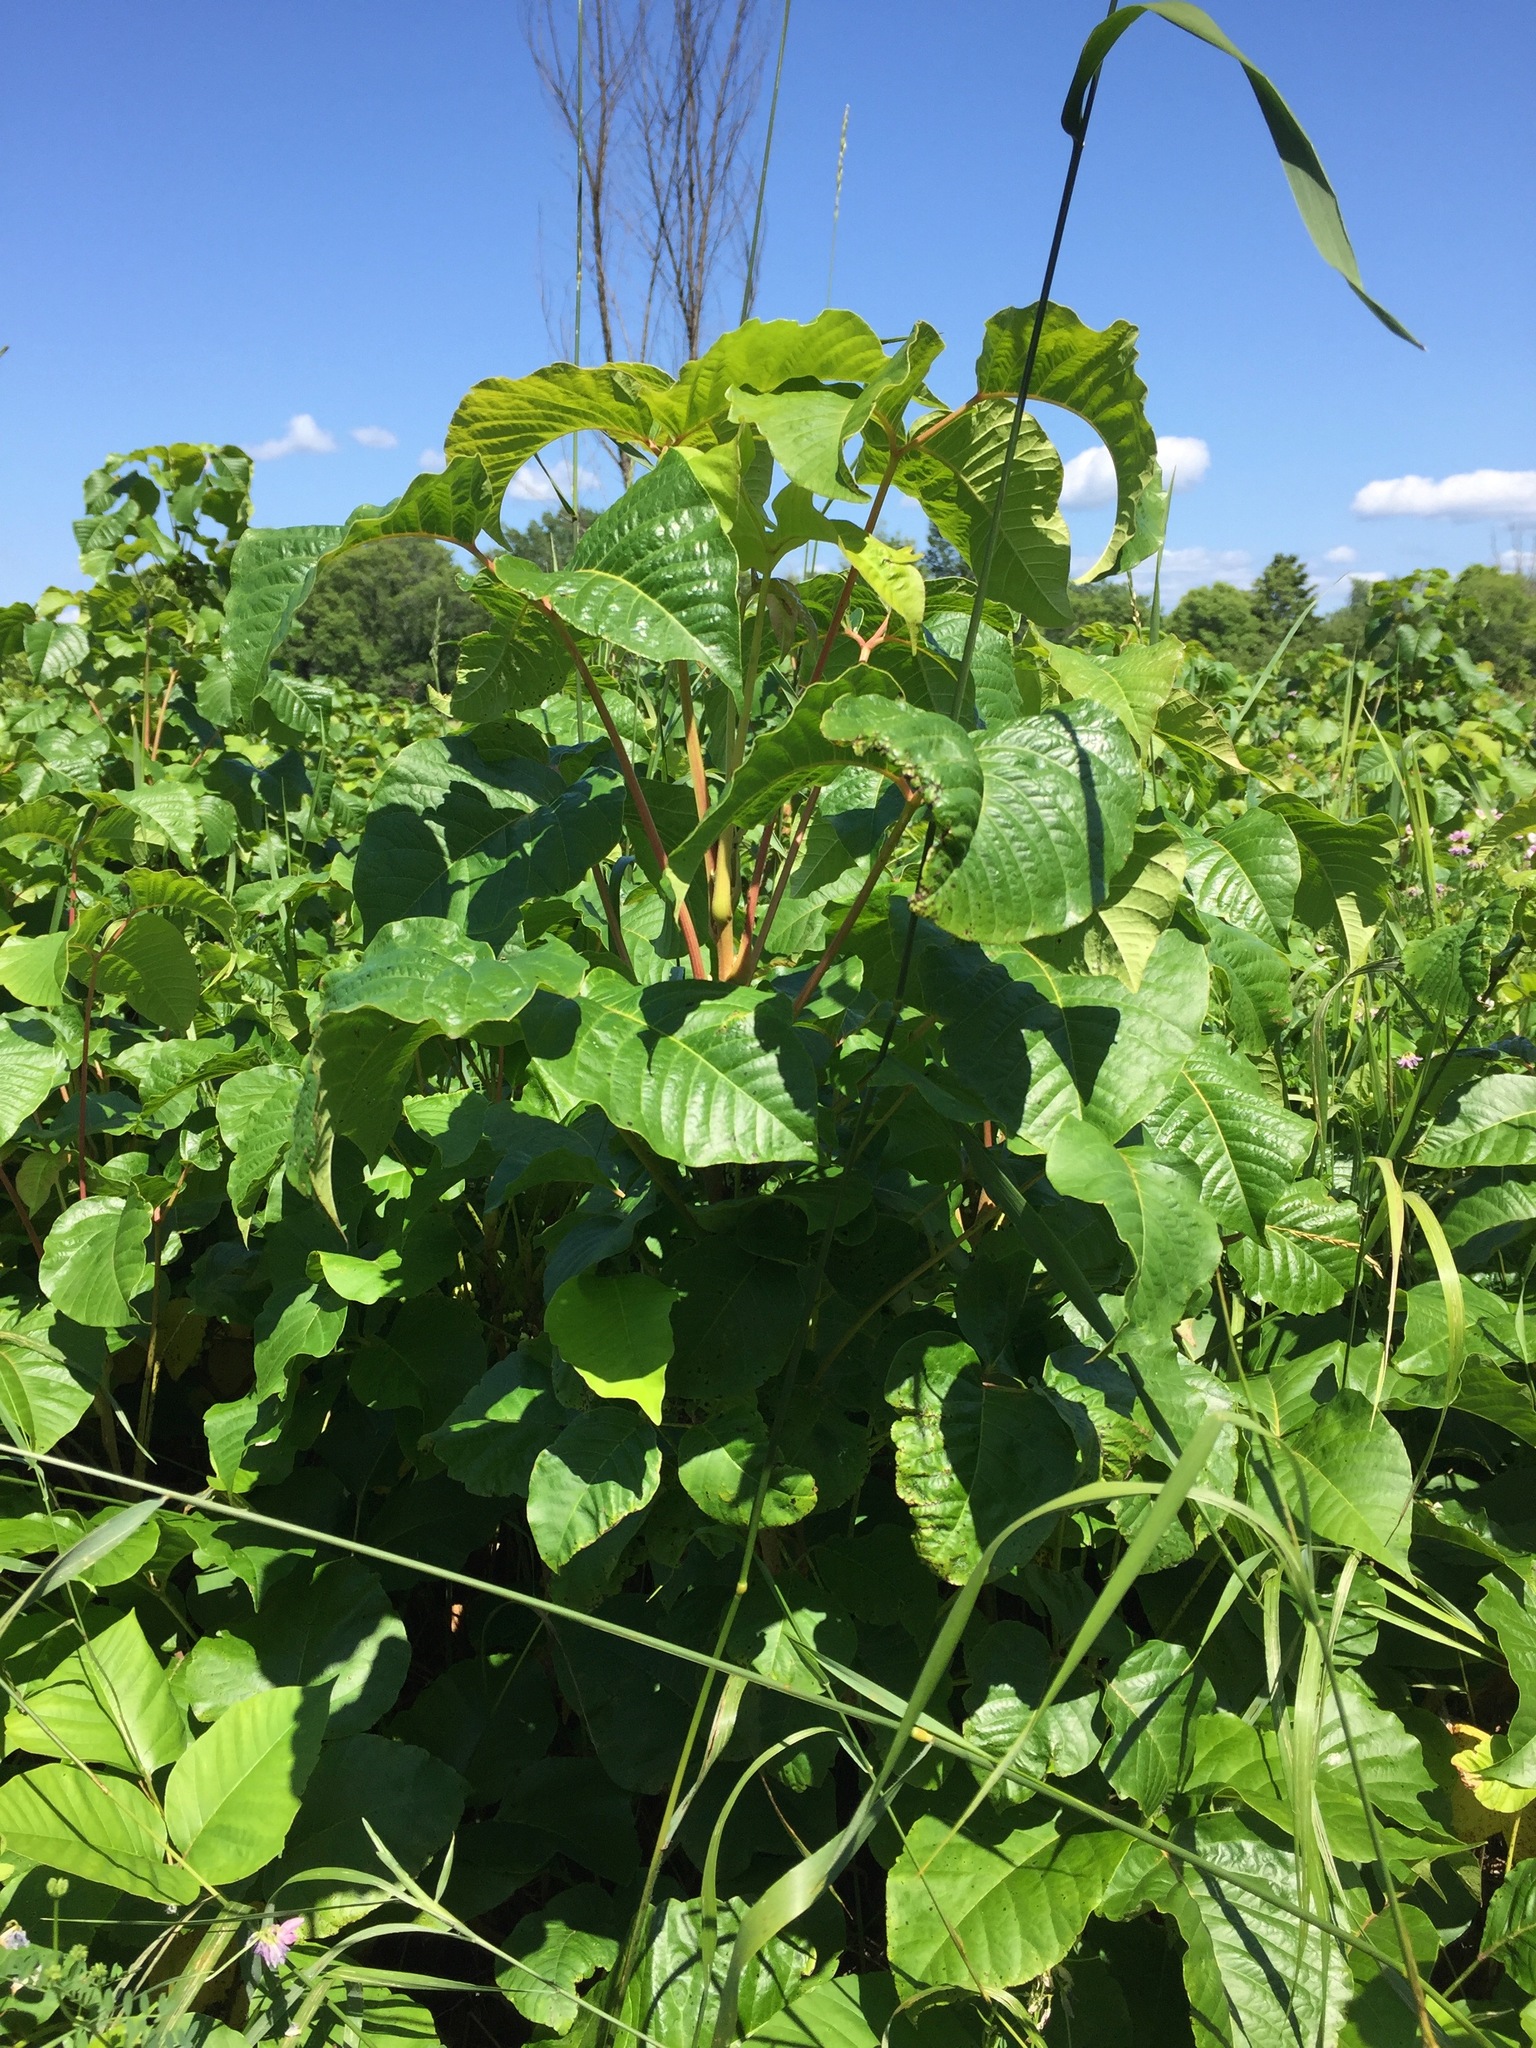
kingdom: Plantae
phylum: Tracheophyta
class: Magnoliopsida
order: Sapindales
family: Anacardiaceae
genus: Toxicodendron
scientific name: Toxicodendron rydbergii
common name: Rydberg's poison-ivy
